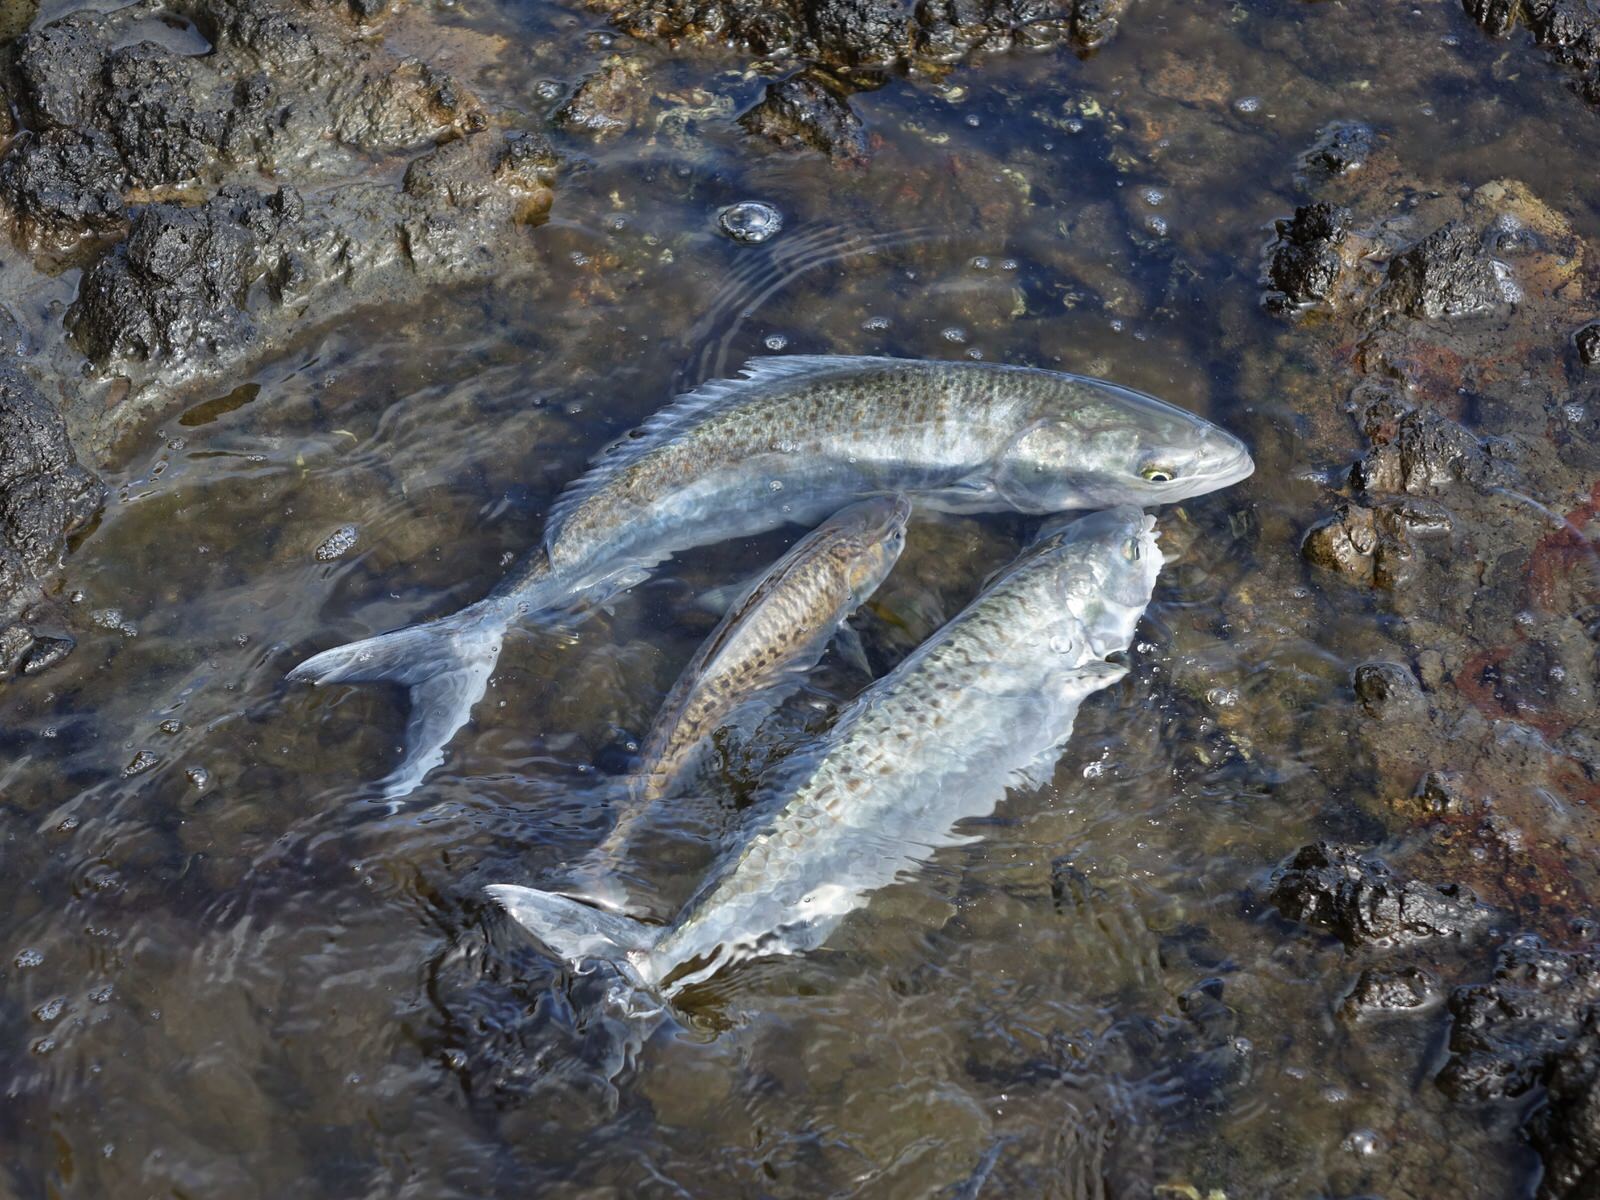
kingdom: Animalia
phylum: Chordata
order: Perciformes
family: Arripidae
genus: Arripis
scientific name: Arripis trutta
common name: Kahawai
